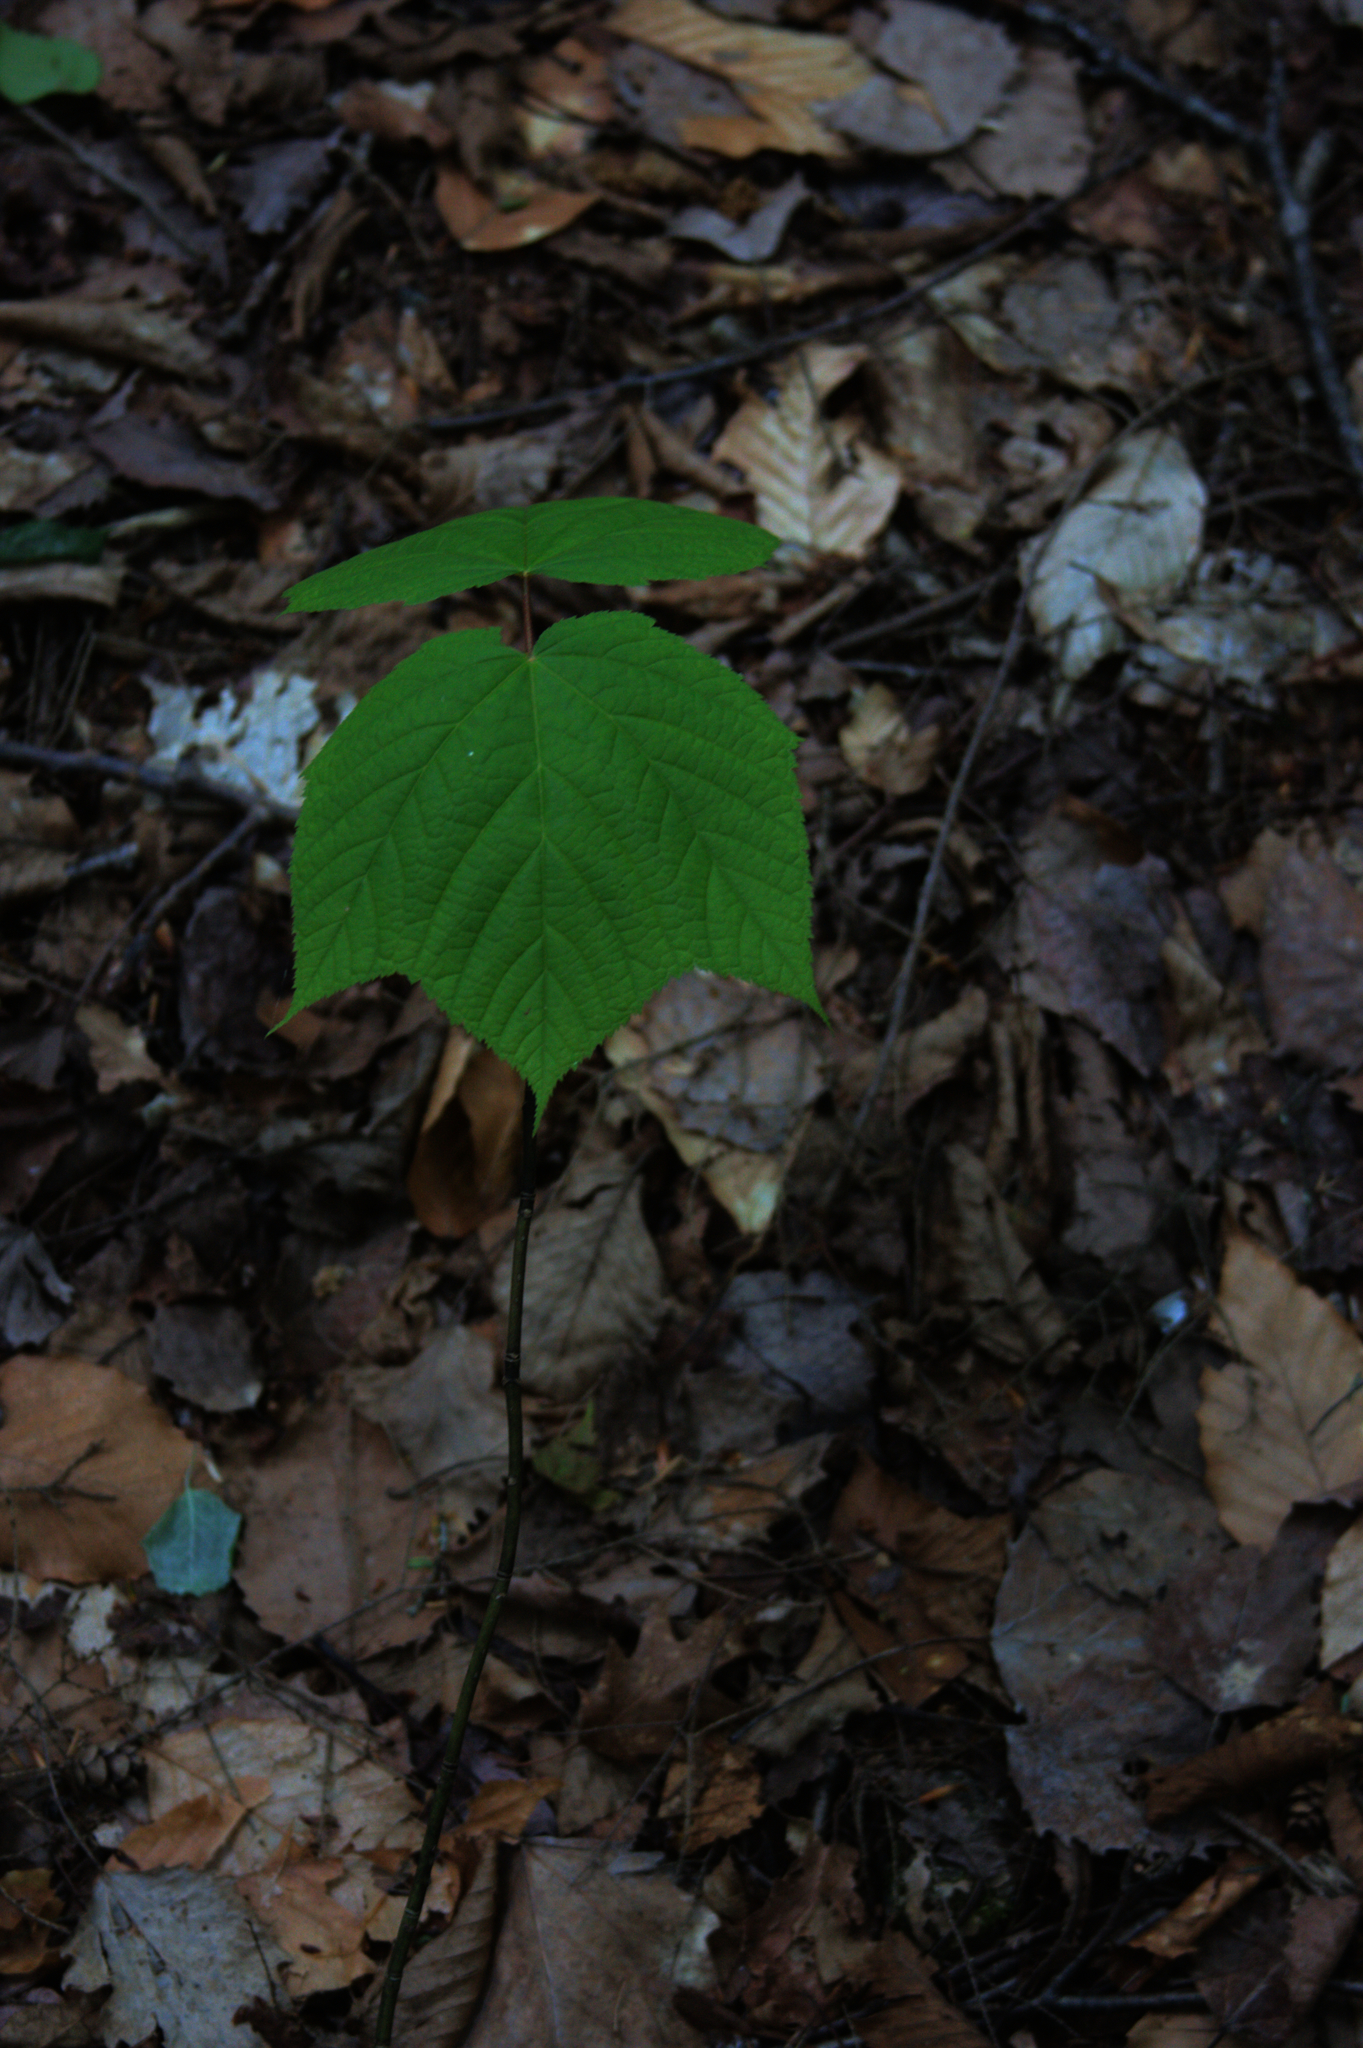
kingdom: Plantae
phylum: Tracheophyta
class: Magnoliopsida
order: Sapindales
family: Sapindaceae
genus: Acer
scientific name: Acer pensylvanicum
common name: Moosewood
